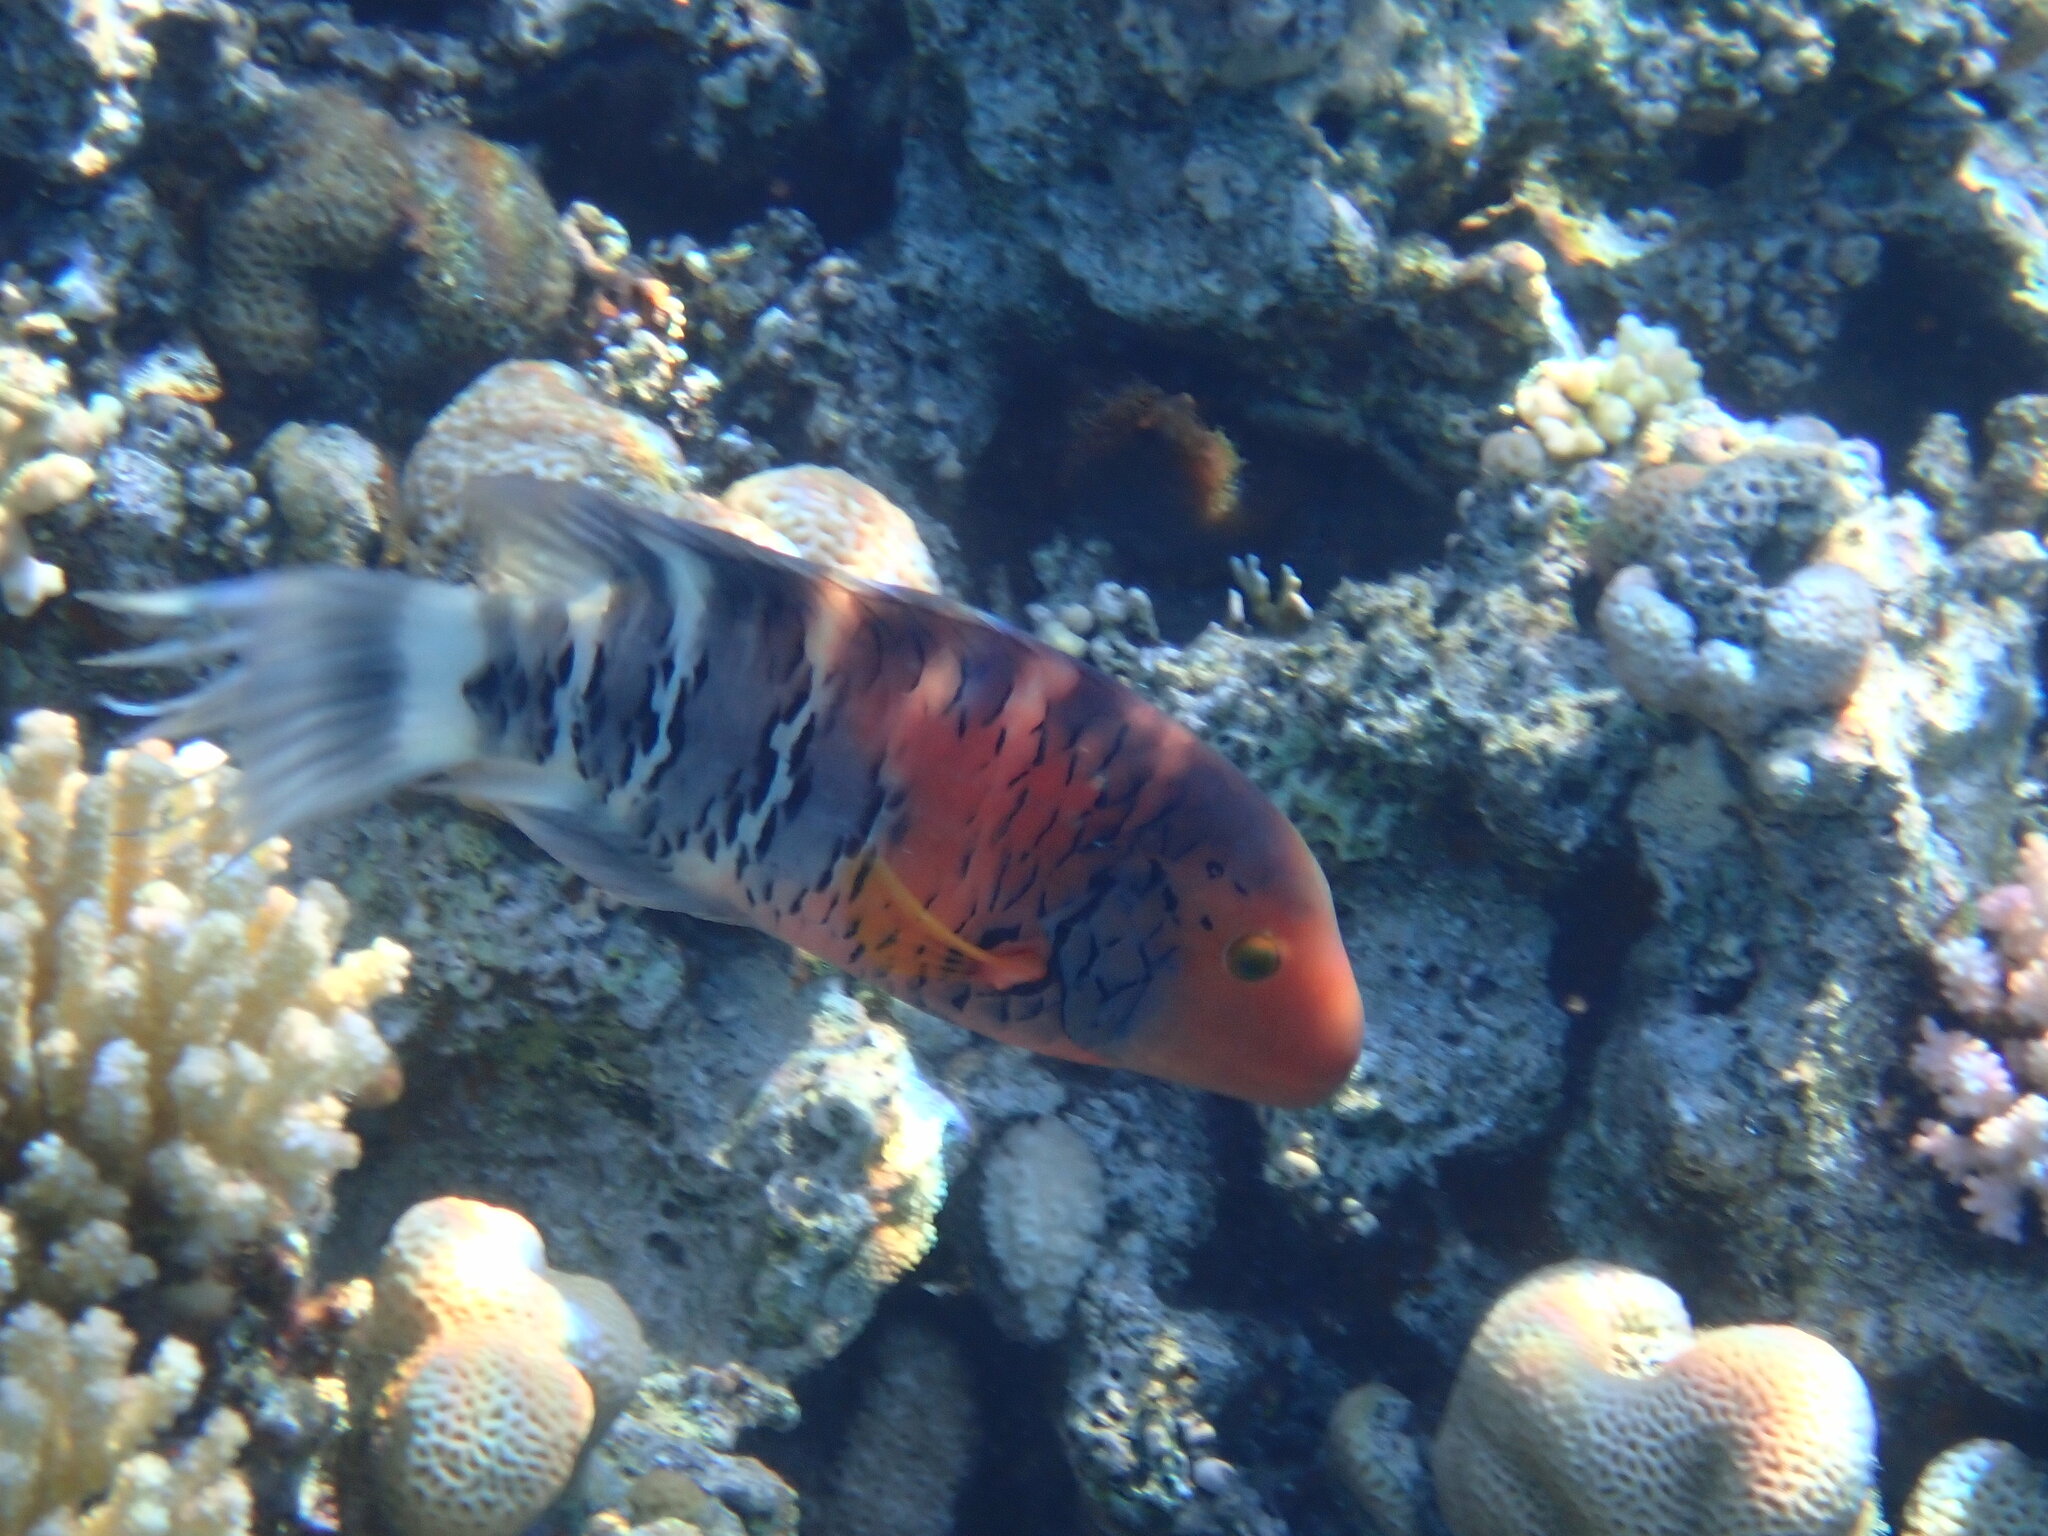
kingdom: Animalia
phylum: Chordata
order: Perciformes
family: Labridae
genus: Cheilinus
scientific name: Cheilinus fasciatus
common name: Red-breasted wrasse
